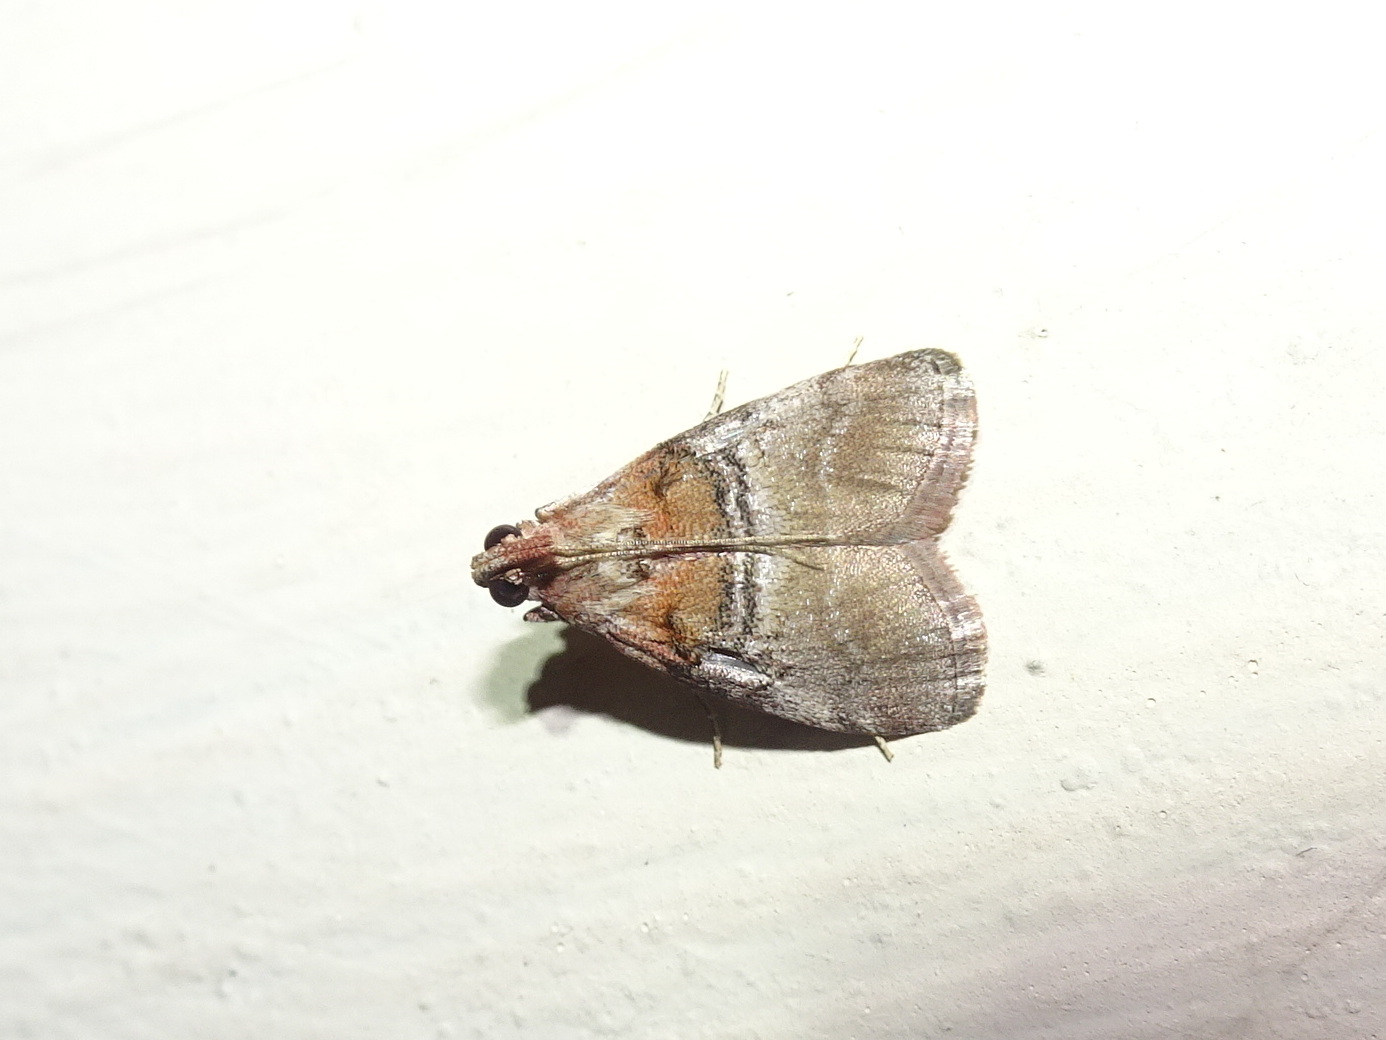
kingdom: Animalia
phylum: Arthropoda
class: Insecta
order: Lepidoptera
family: Pyralidae
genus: Pococera
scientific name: Pococera militella
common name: Sycamore webworm moth
